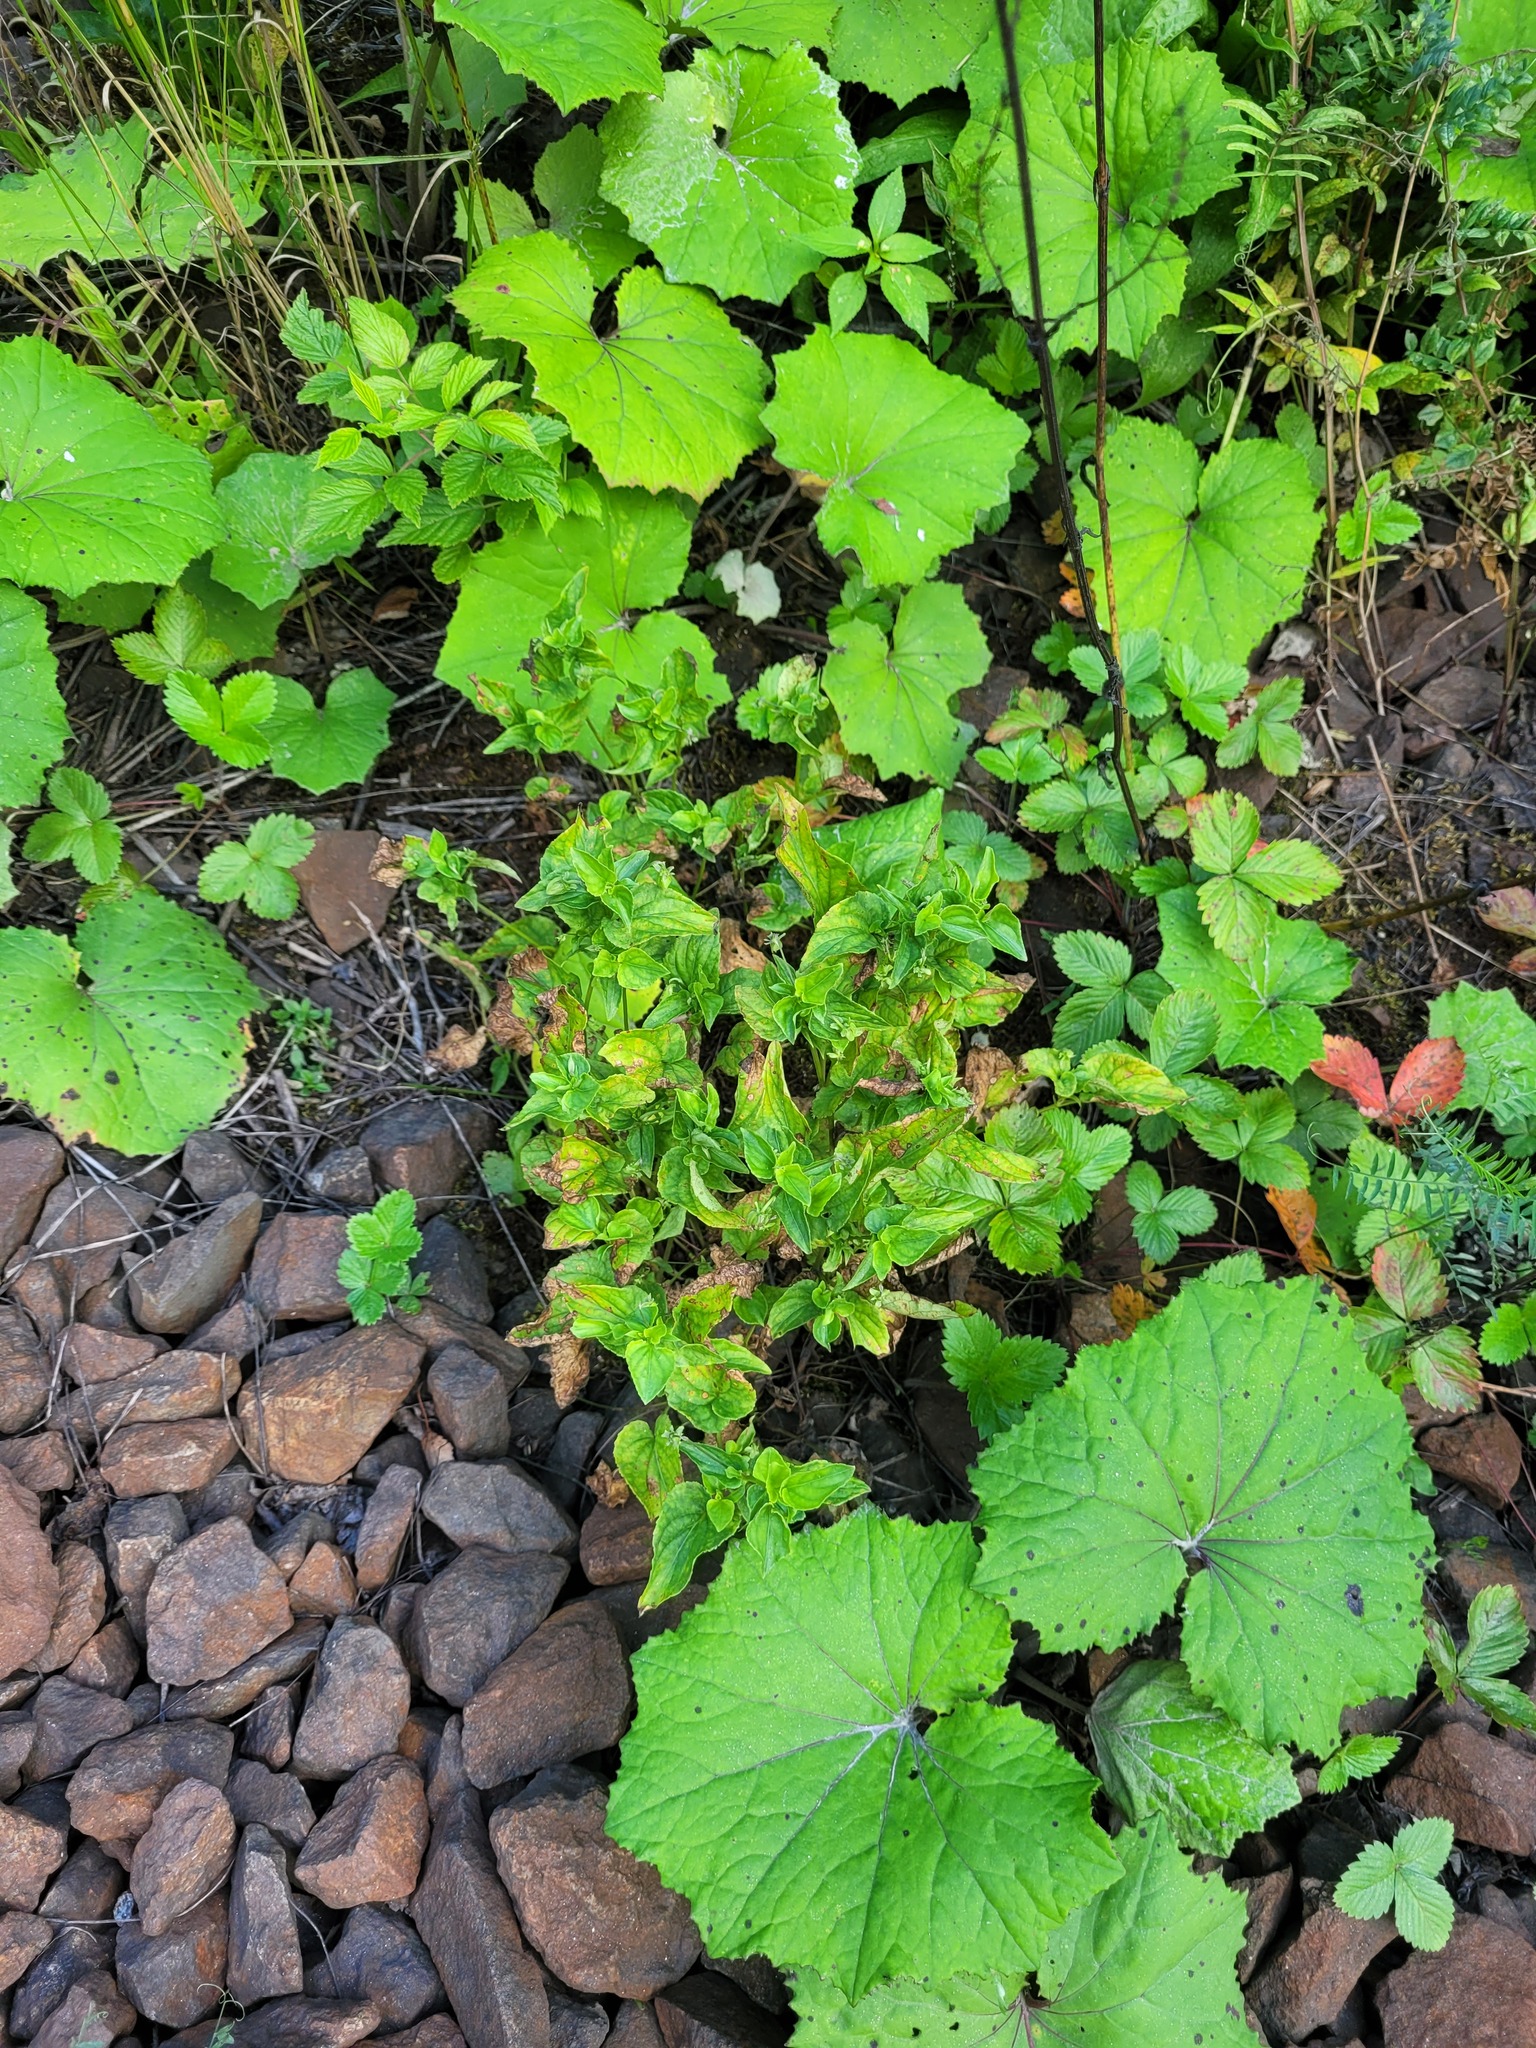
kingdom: Plantae
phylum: Tracheophyta
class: Magnoliopsida
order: Malpighiales
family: Violaceae
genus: Viola
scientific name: Viola canina
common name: Heath dog-violet
